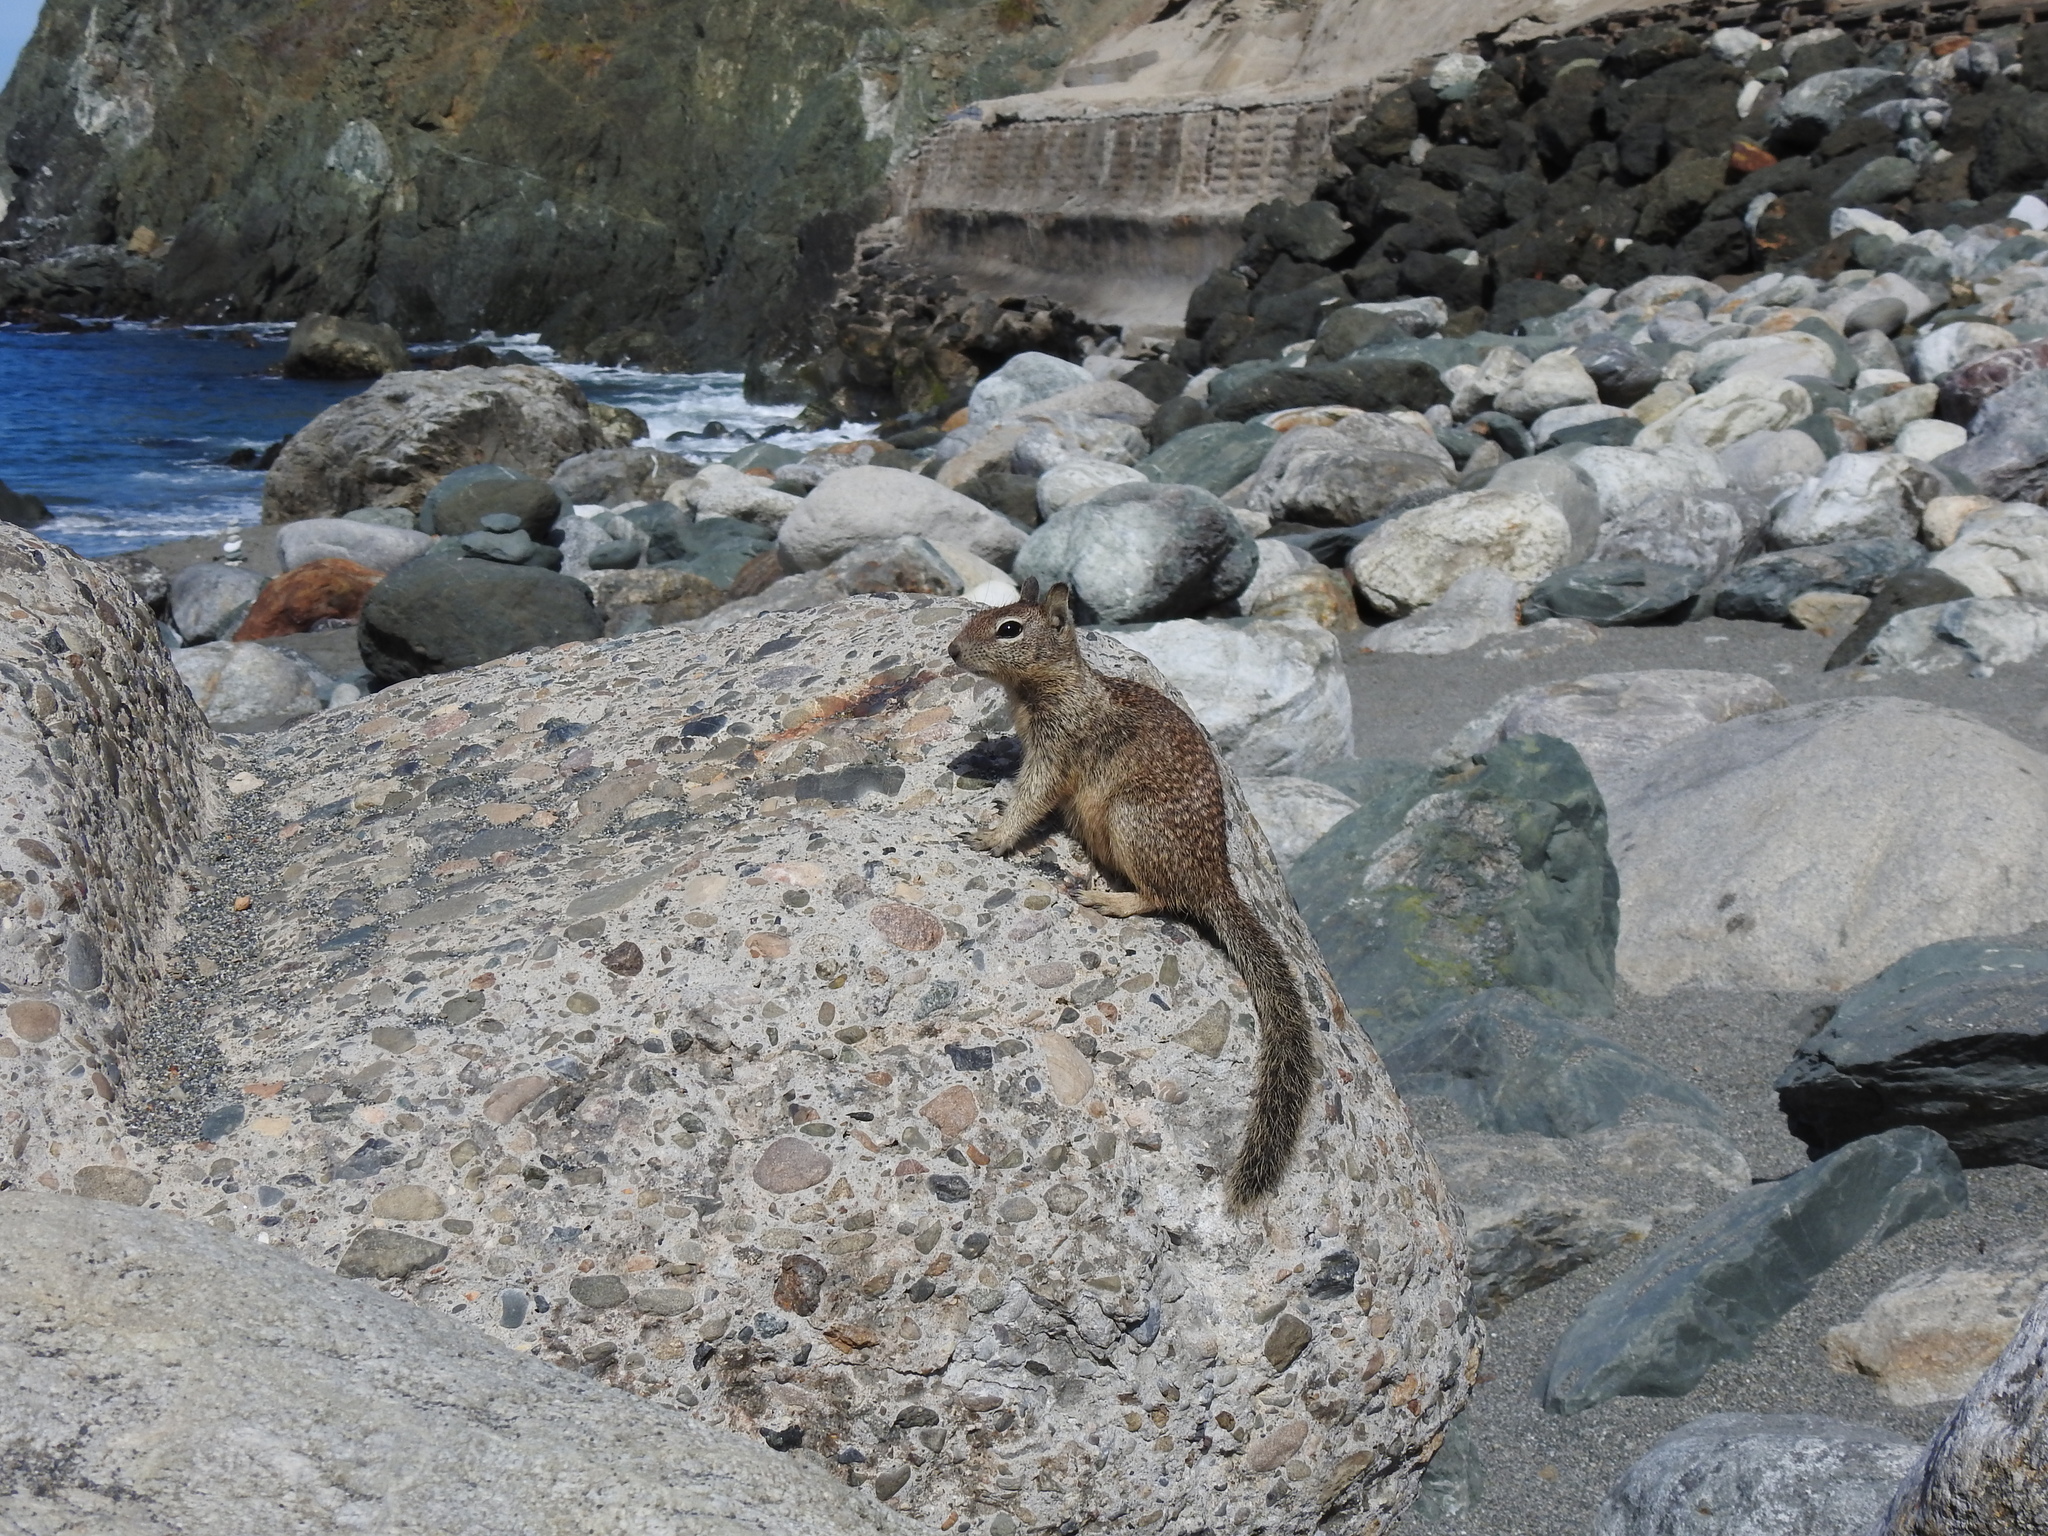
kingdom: Animalia
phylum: Chordata
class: Mammalia
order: Rodentia
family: Sciuridae
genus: Otospermophilus
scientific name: Otospermophilus beecheyi
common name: California ground squirrel
